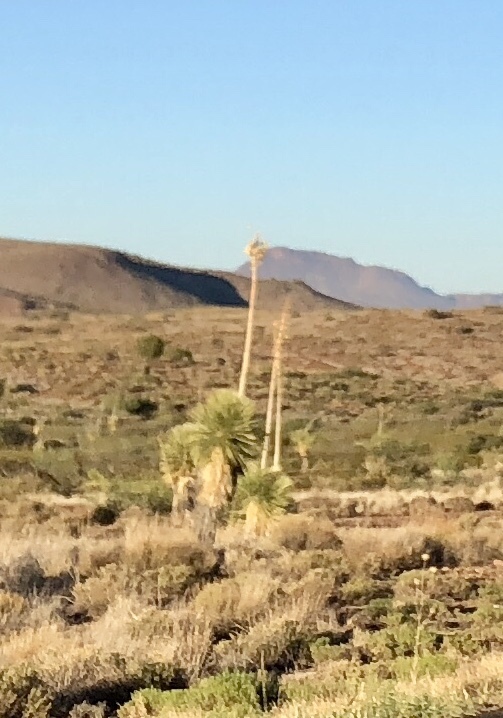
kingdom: Plantae
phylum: Tracheophyta
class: Liliopsida
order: Asparagales
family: Asparagaceae
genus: Yucca
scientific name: Yucca elata
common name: Palmella
